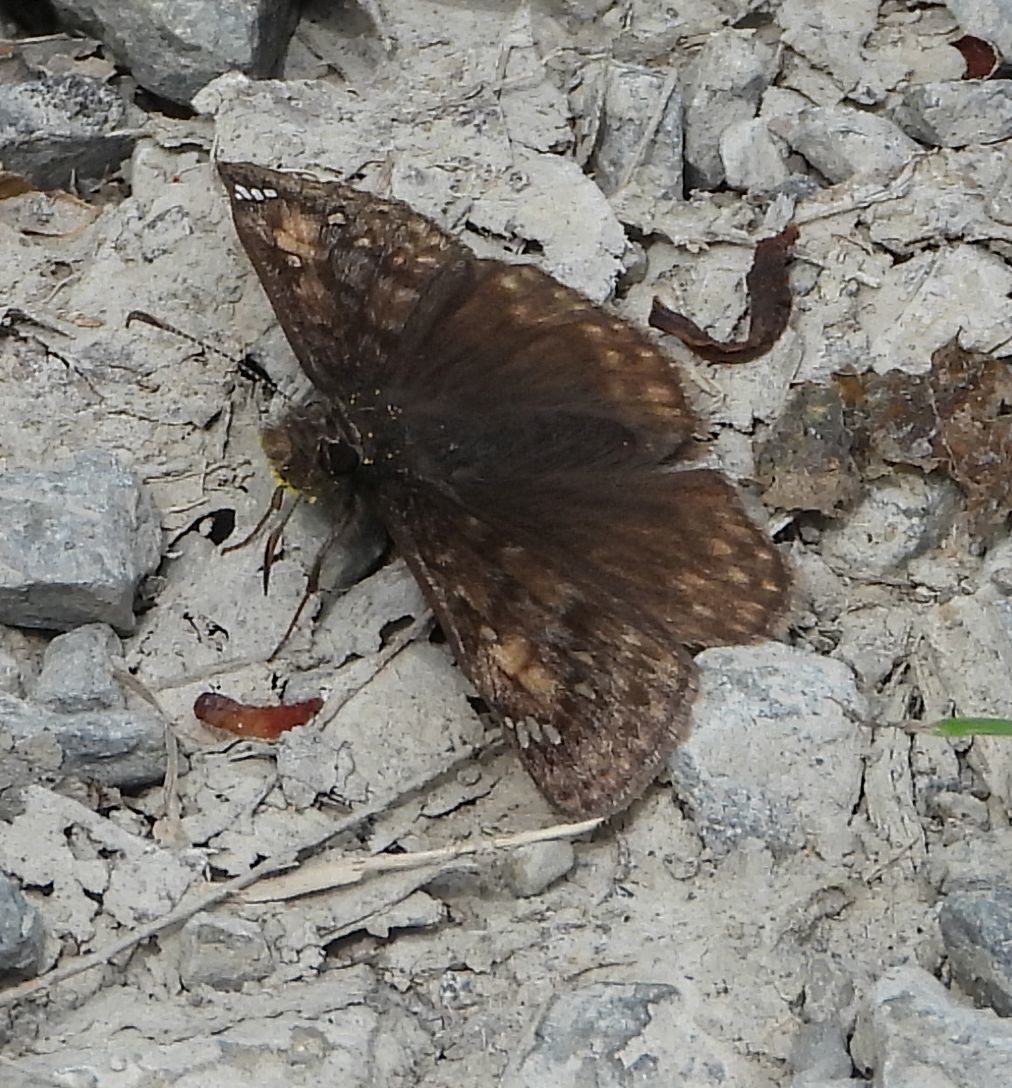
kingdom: Animalia
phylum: Arthropoda
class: Insecta
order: Lepidoptera
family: Hesperiidae
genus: Erynnis
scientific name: Erynnis juvenalis
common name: Juvenal's duskywing
